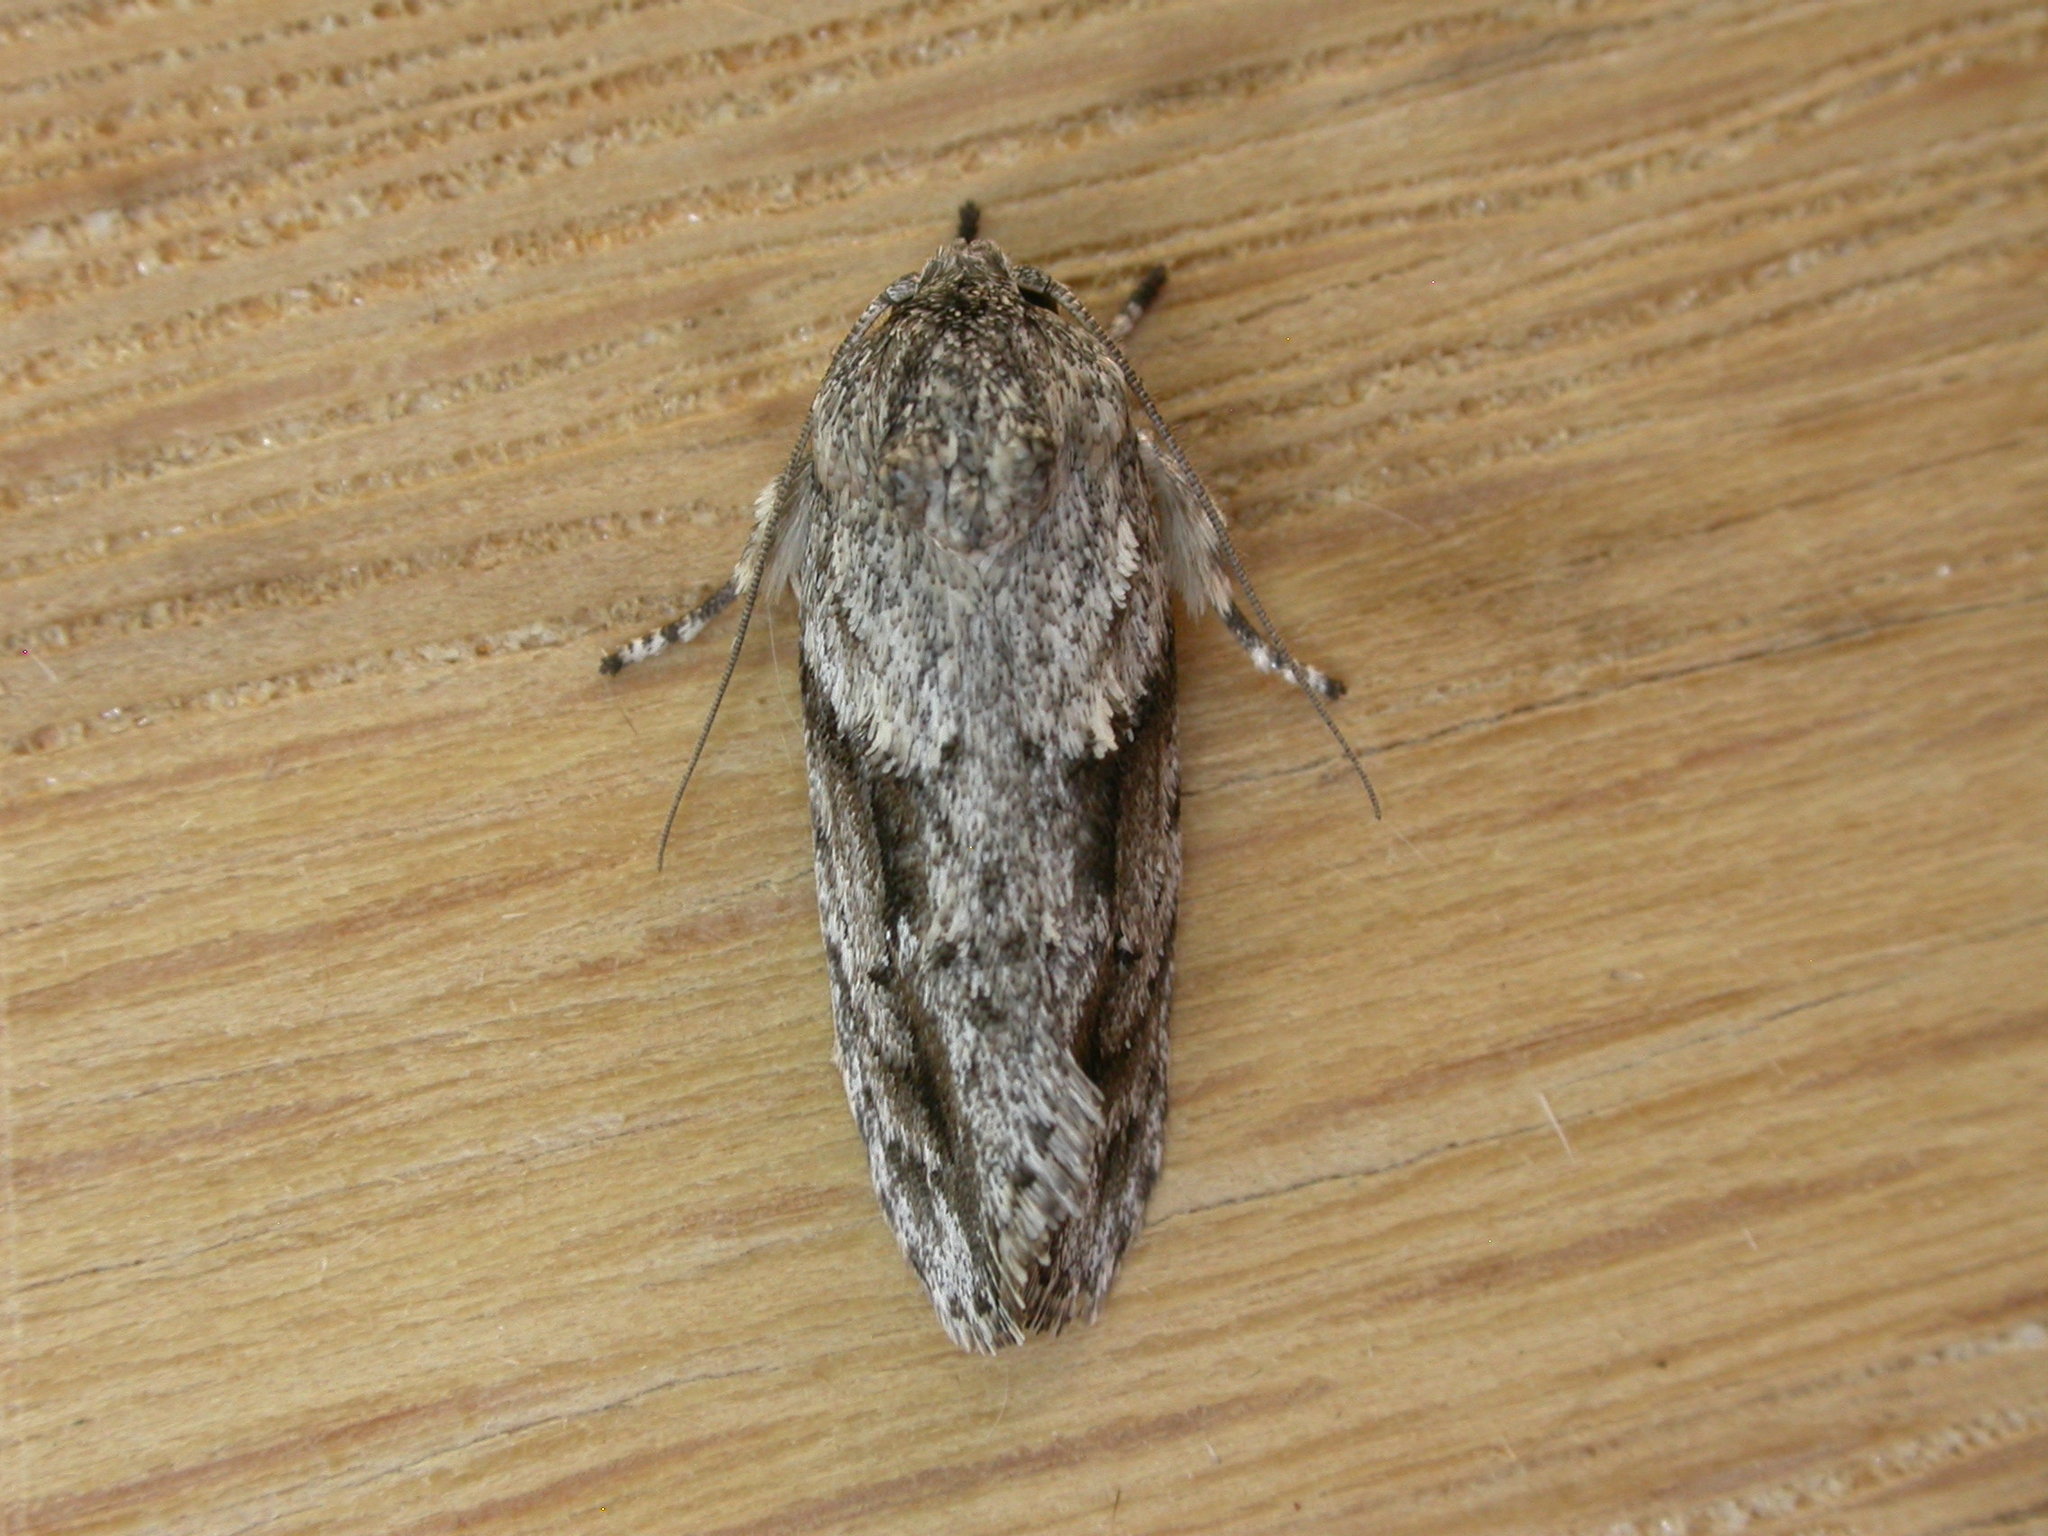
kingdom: Animalia
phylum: Arthropoda
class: Insecta
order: Lepidoptera
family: Depressariidae
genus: Agriophara
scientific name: Agriophara confertella
